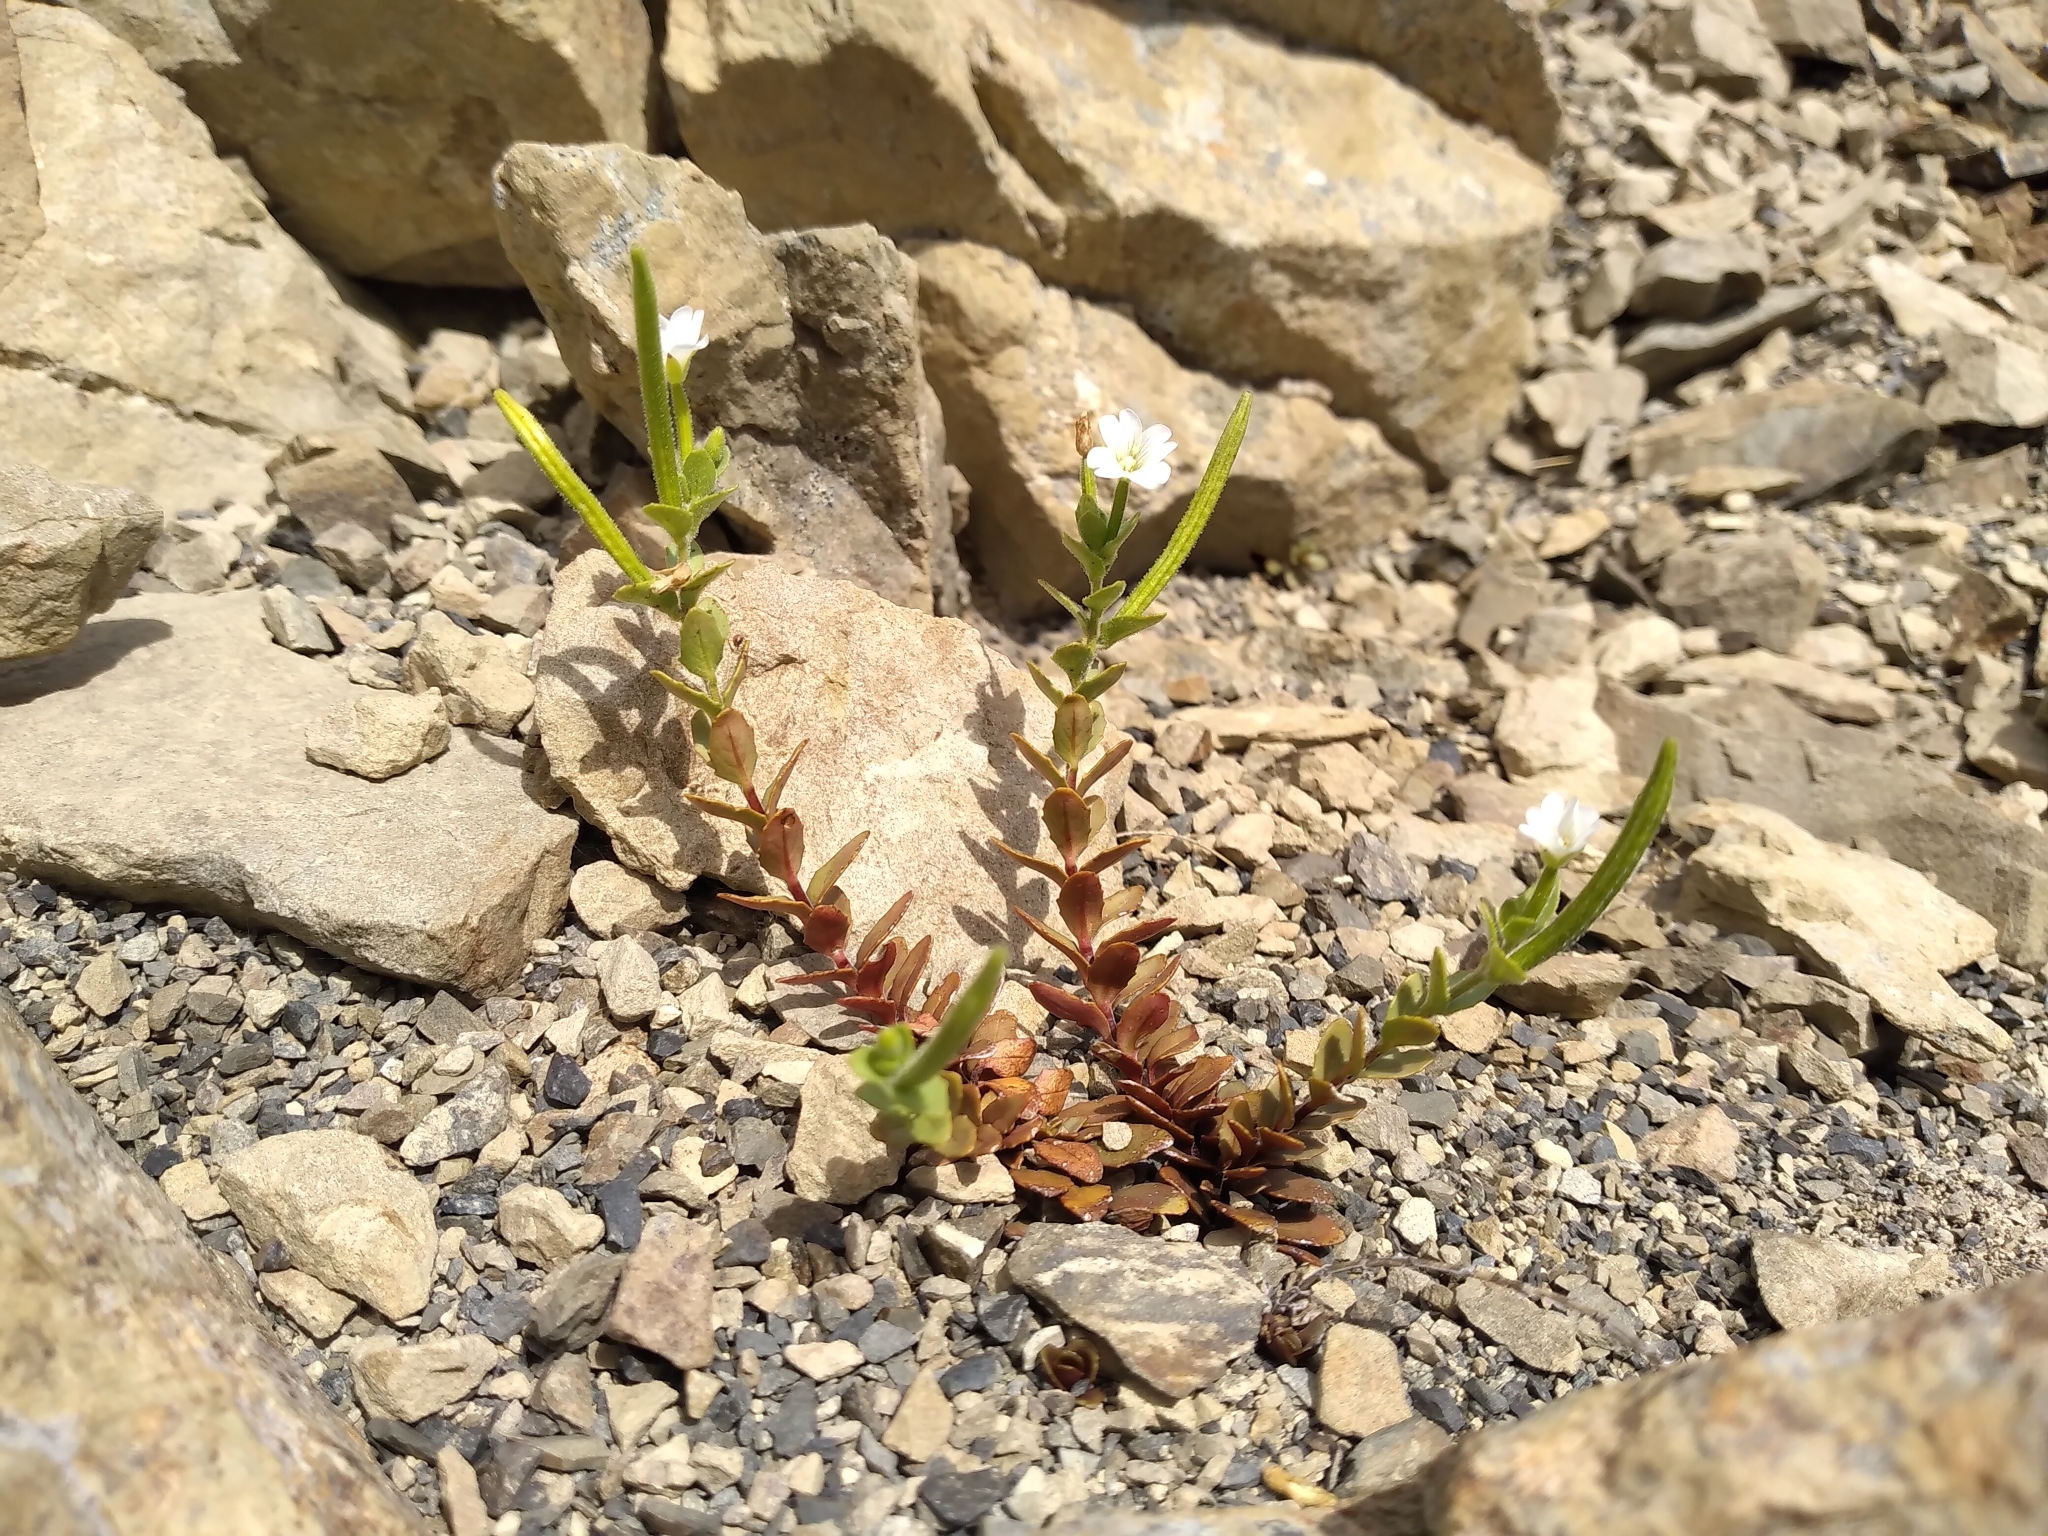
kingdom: Plantae
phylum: Tracheophyta
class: Magnoliopsida
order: Myrtales
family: Onagraceae
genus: Epilobium
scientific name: Epilobium wilsonii
